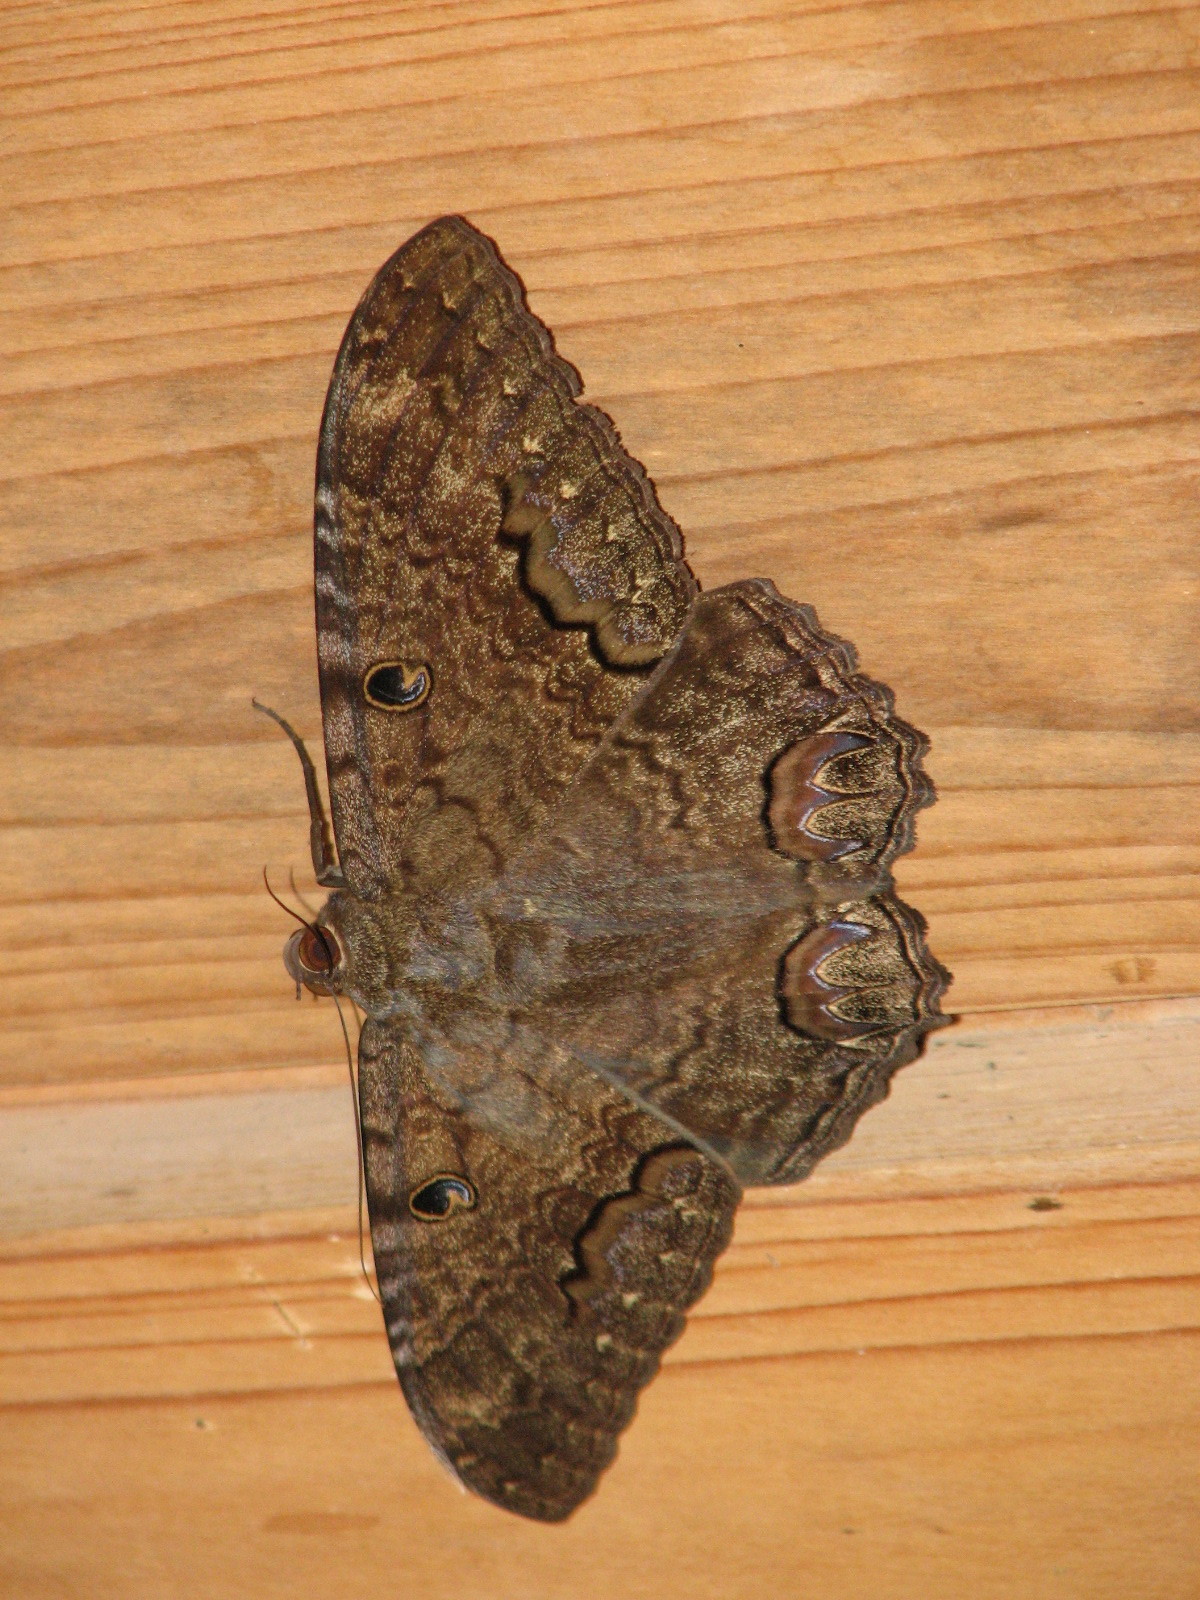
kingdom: Animalia
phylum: Arthropoda
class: Insecta
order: Lepidoptera
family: Erebidae
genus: Ascalapha
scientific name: Ascalapha odorata
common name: Black witch
